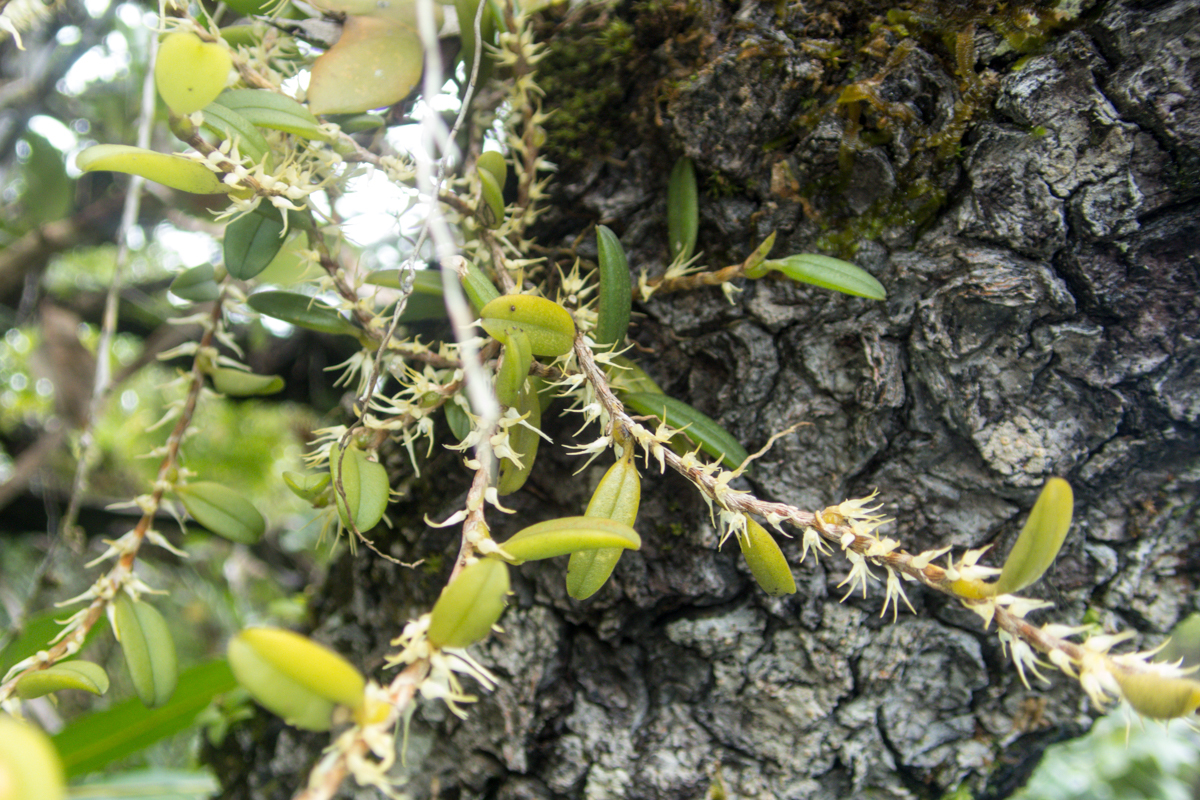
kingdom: Plantae
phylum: Tracheophyta
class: Liliopsida
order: Asparagales
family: Orchidaceae
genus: Bulbophyllum
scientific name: Bulbophyllum clandestinum
